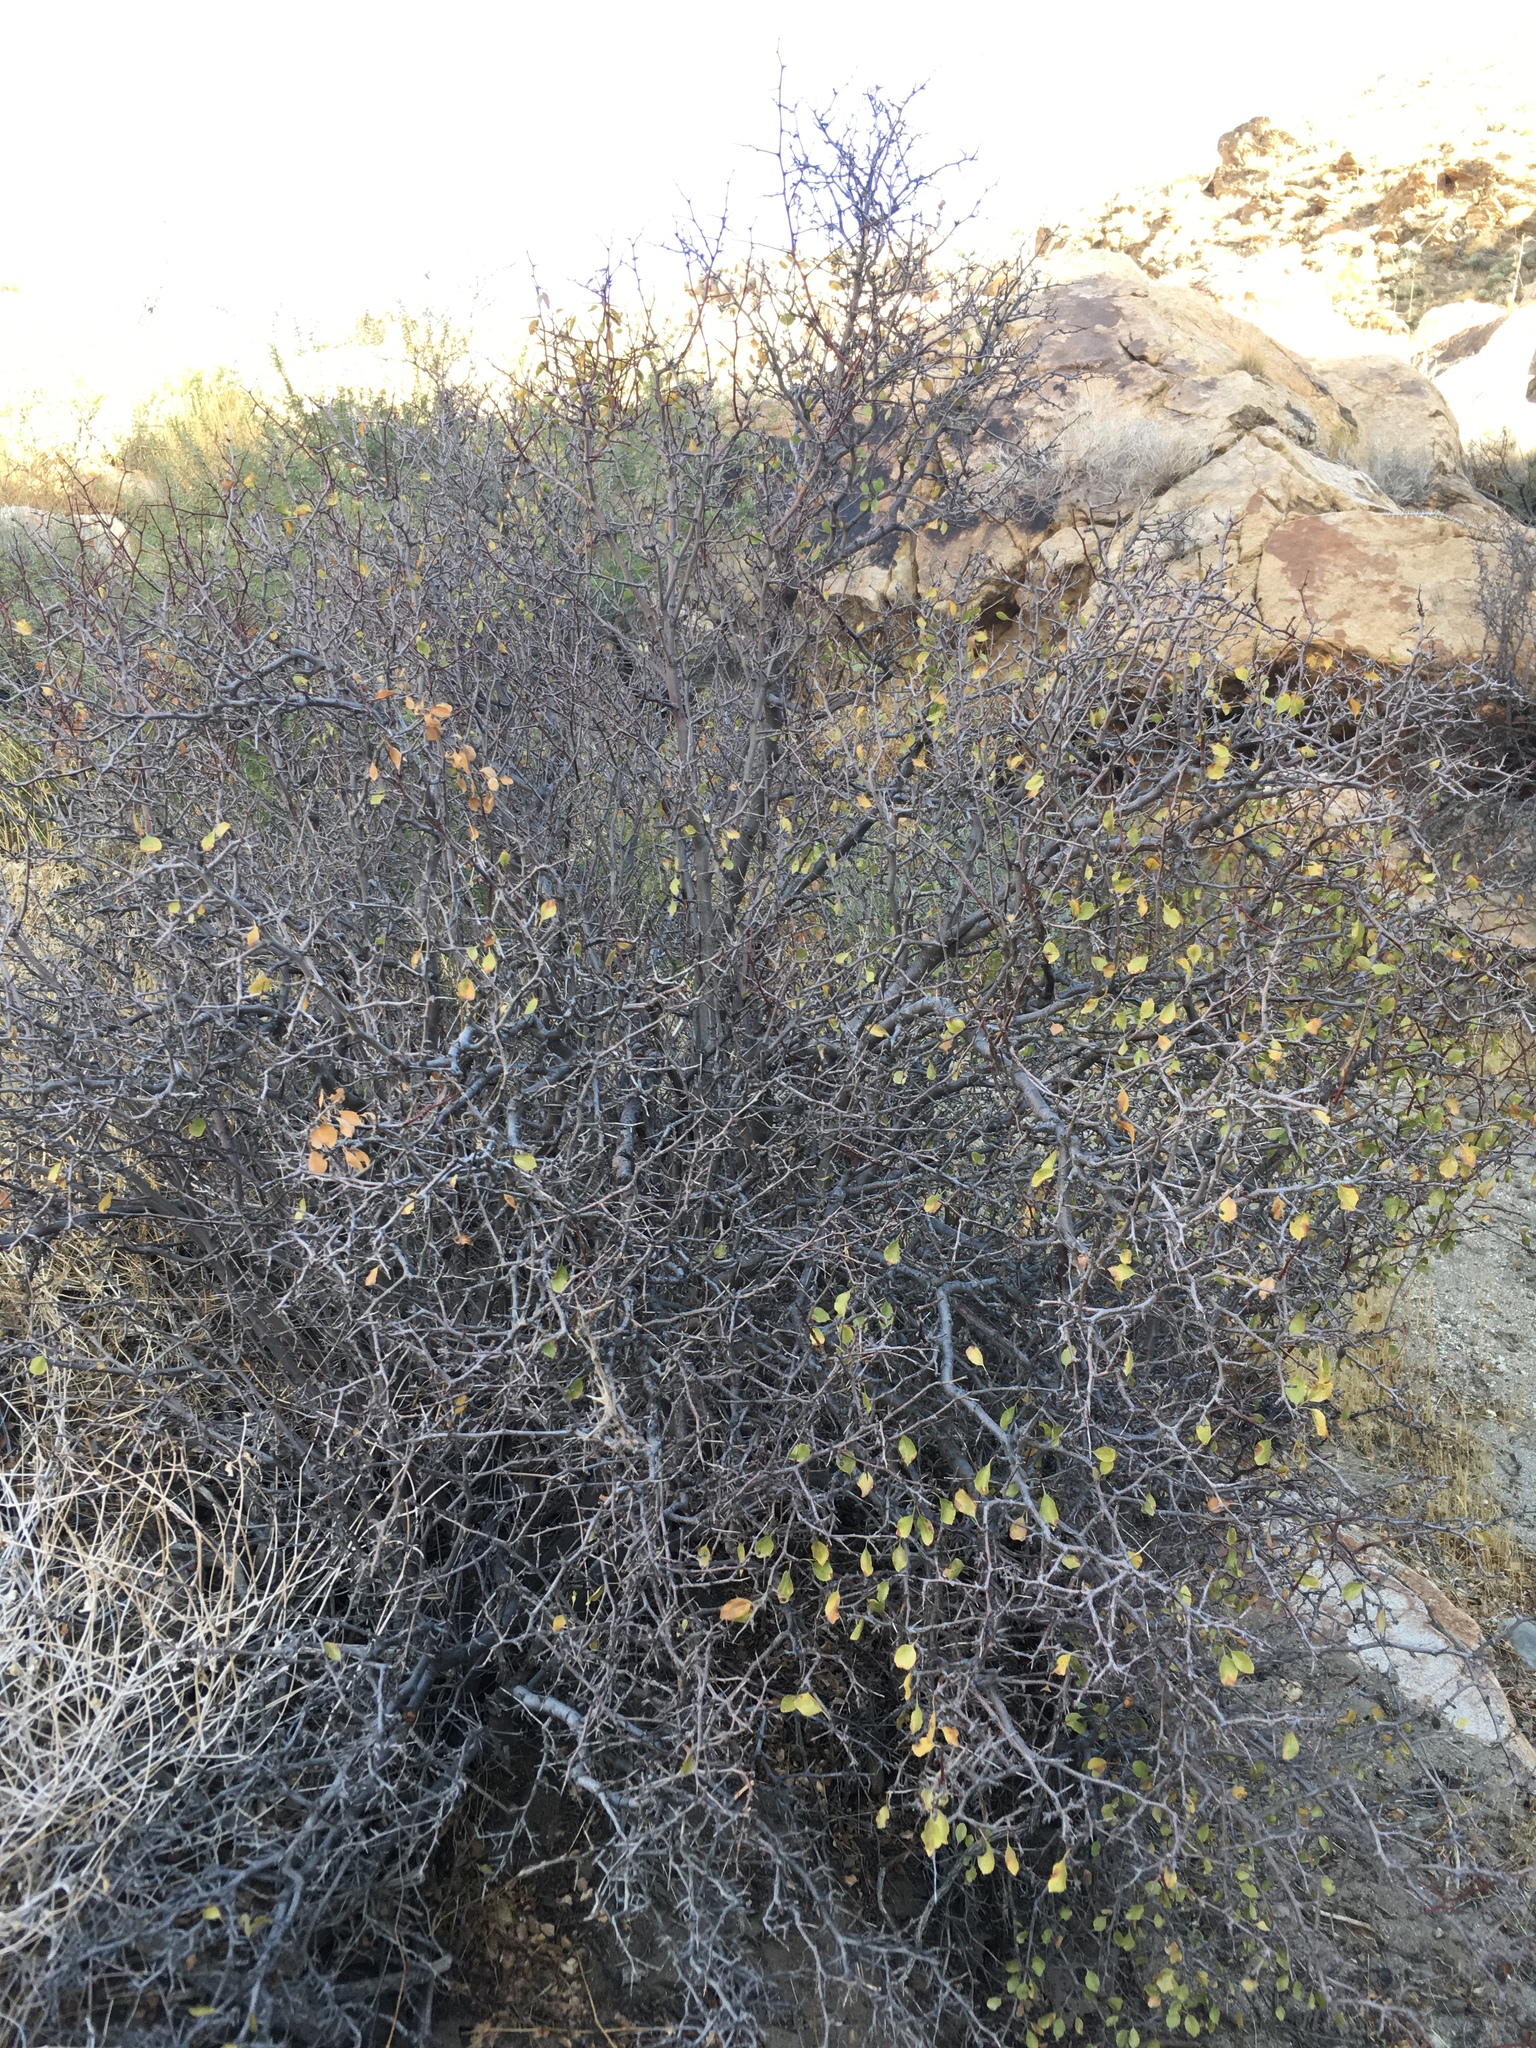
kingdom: Plantae
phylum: Tracheophyta
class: Magnoliopsida
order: Rosales
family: Rosaceae
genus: Prunus
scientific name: Prunus fremontii
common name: Desert apricot
